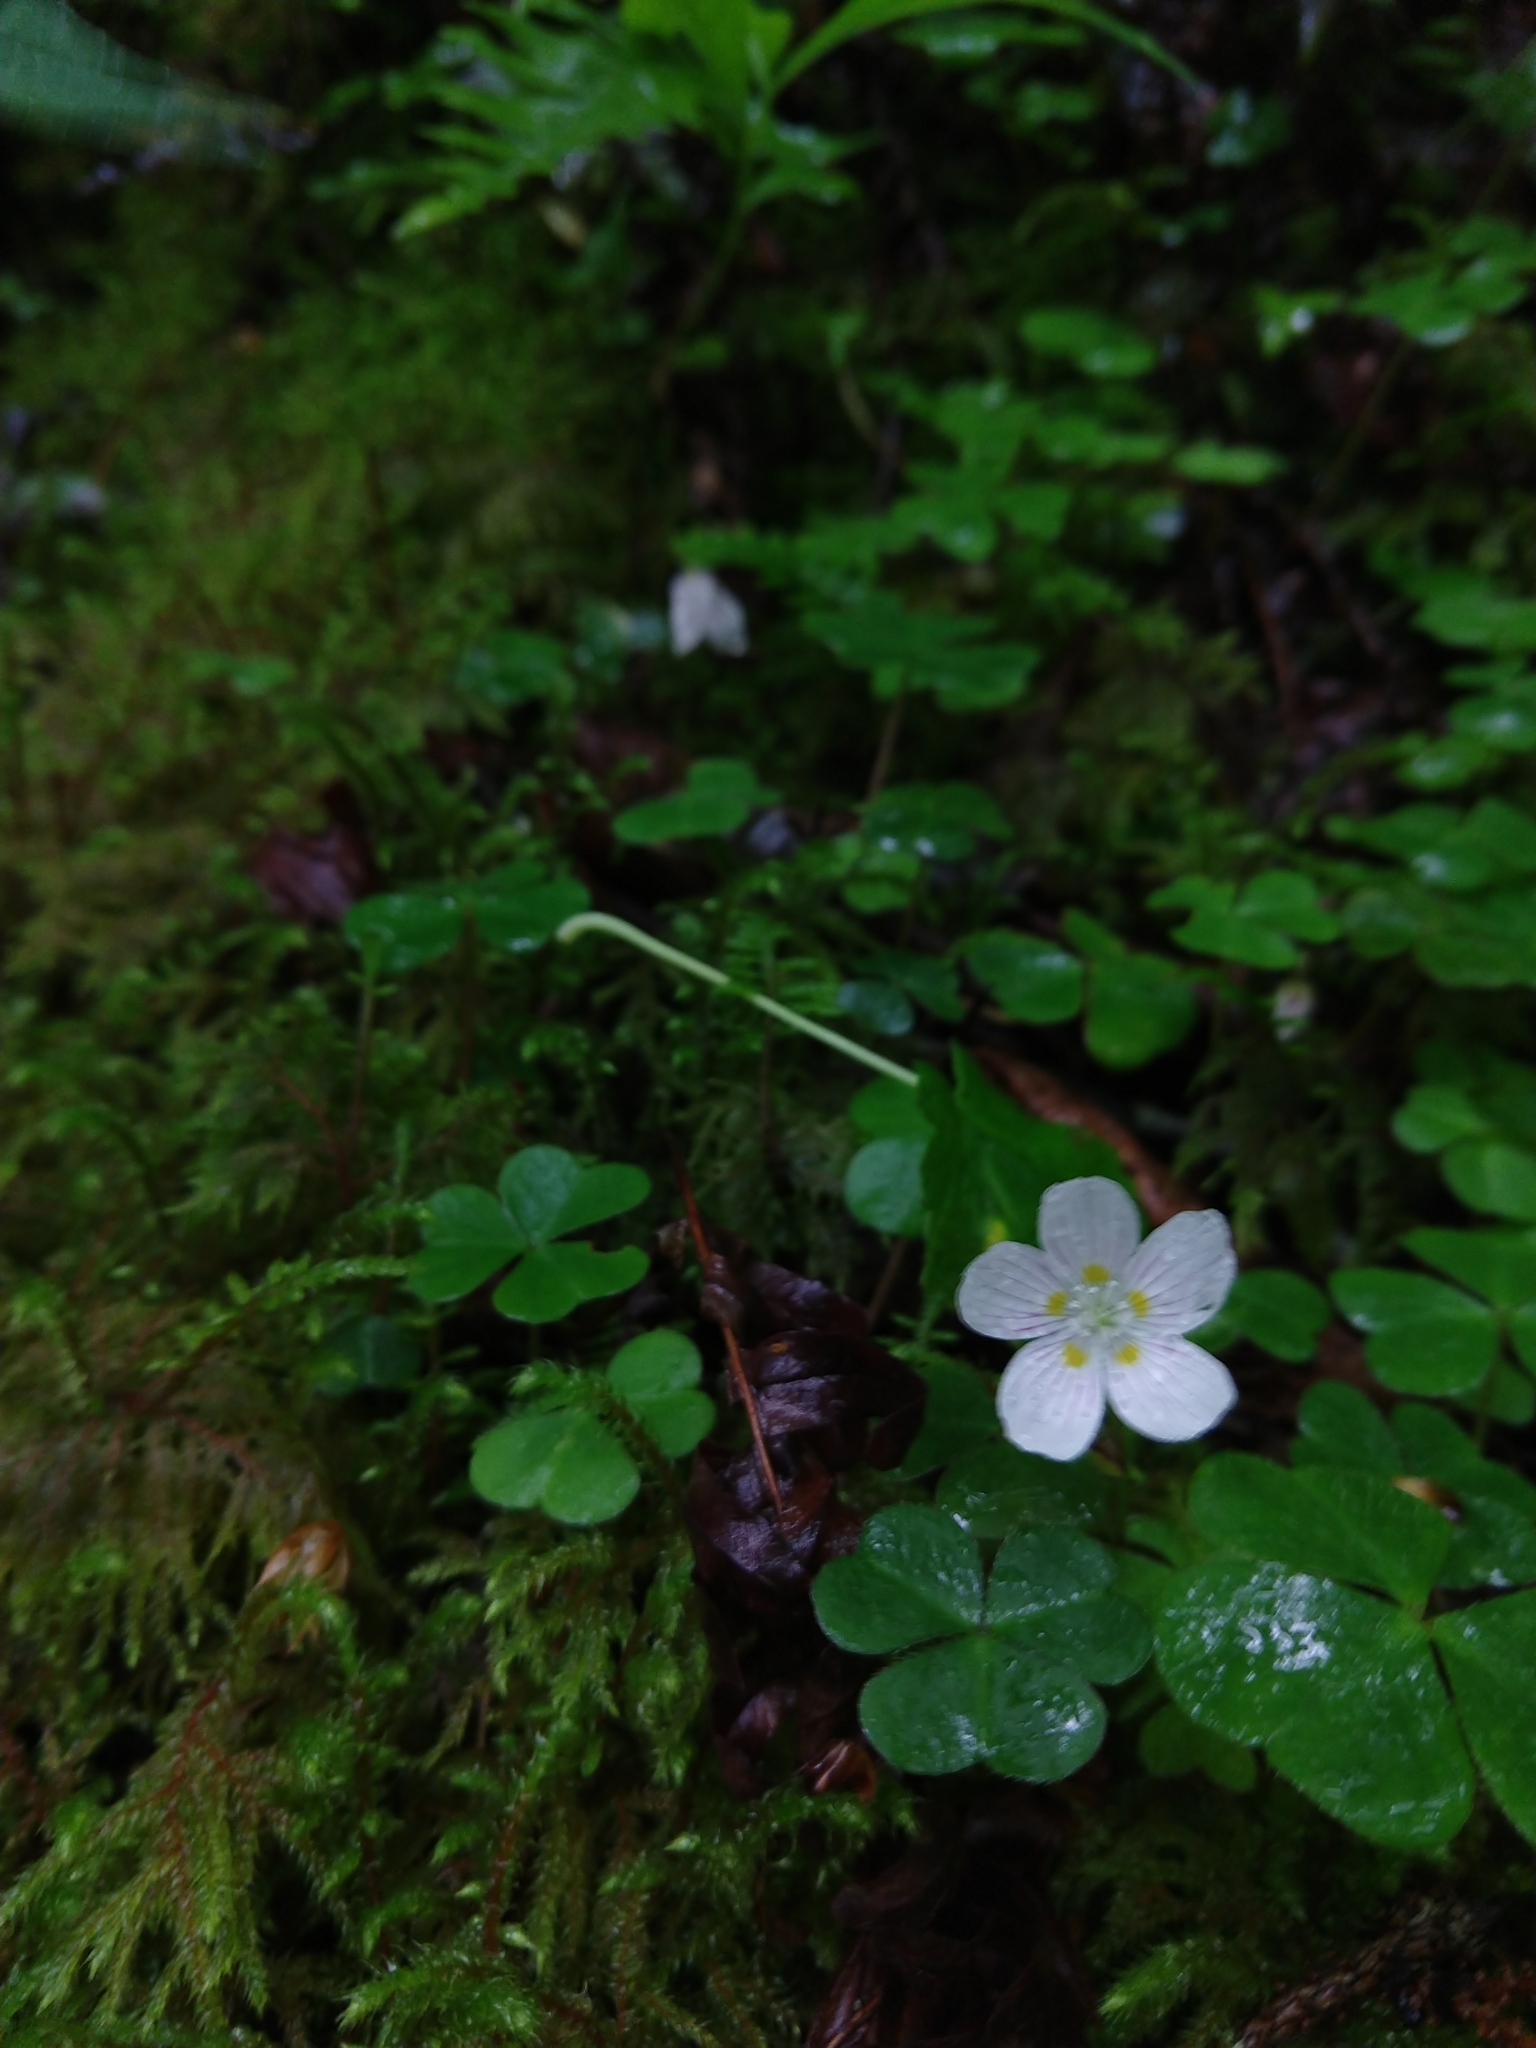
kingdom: Plantae
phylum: Tracheophyta
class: Magnoliopsida
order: Oxalidales
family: Oxalidaceae
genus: Oxalis
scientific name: Oxalis montana
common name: American wood-sorrel
